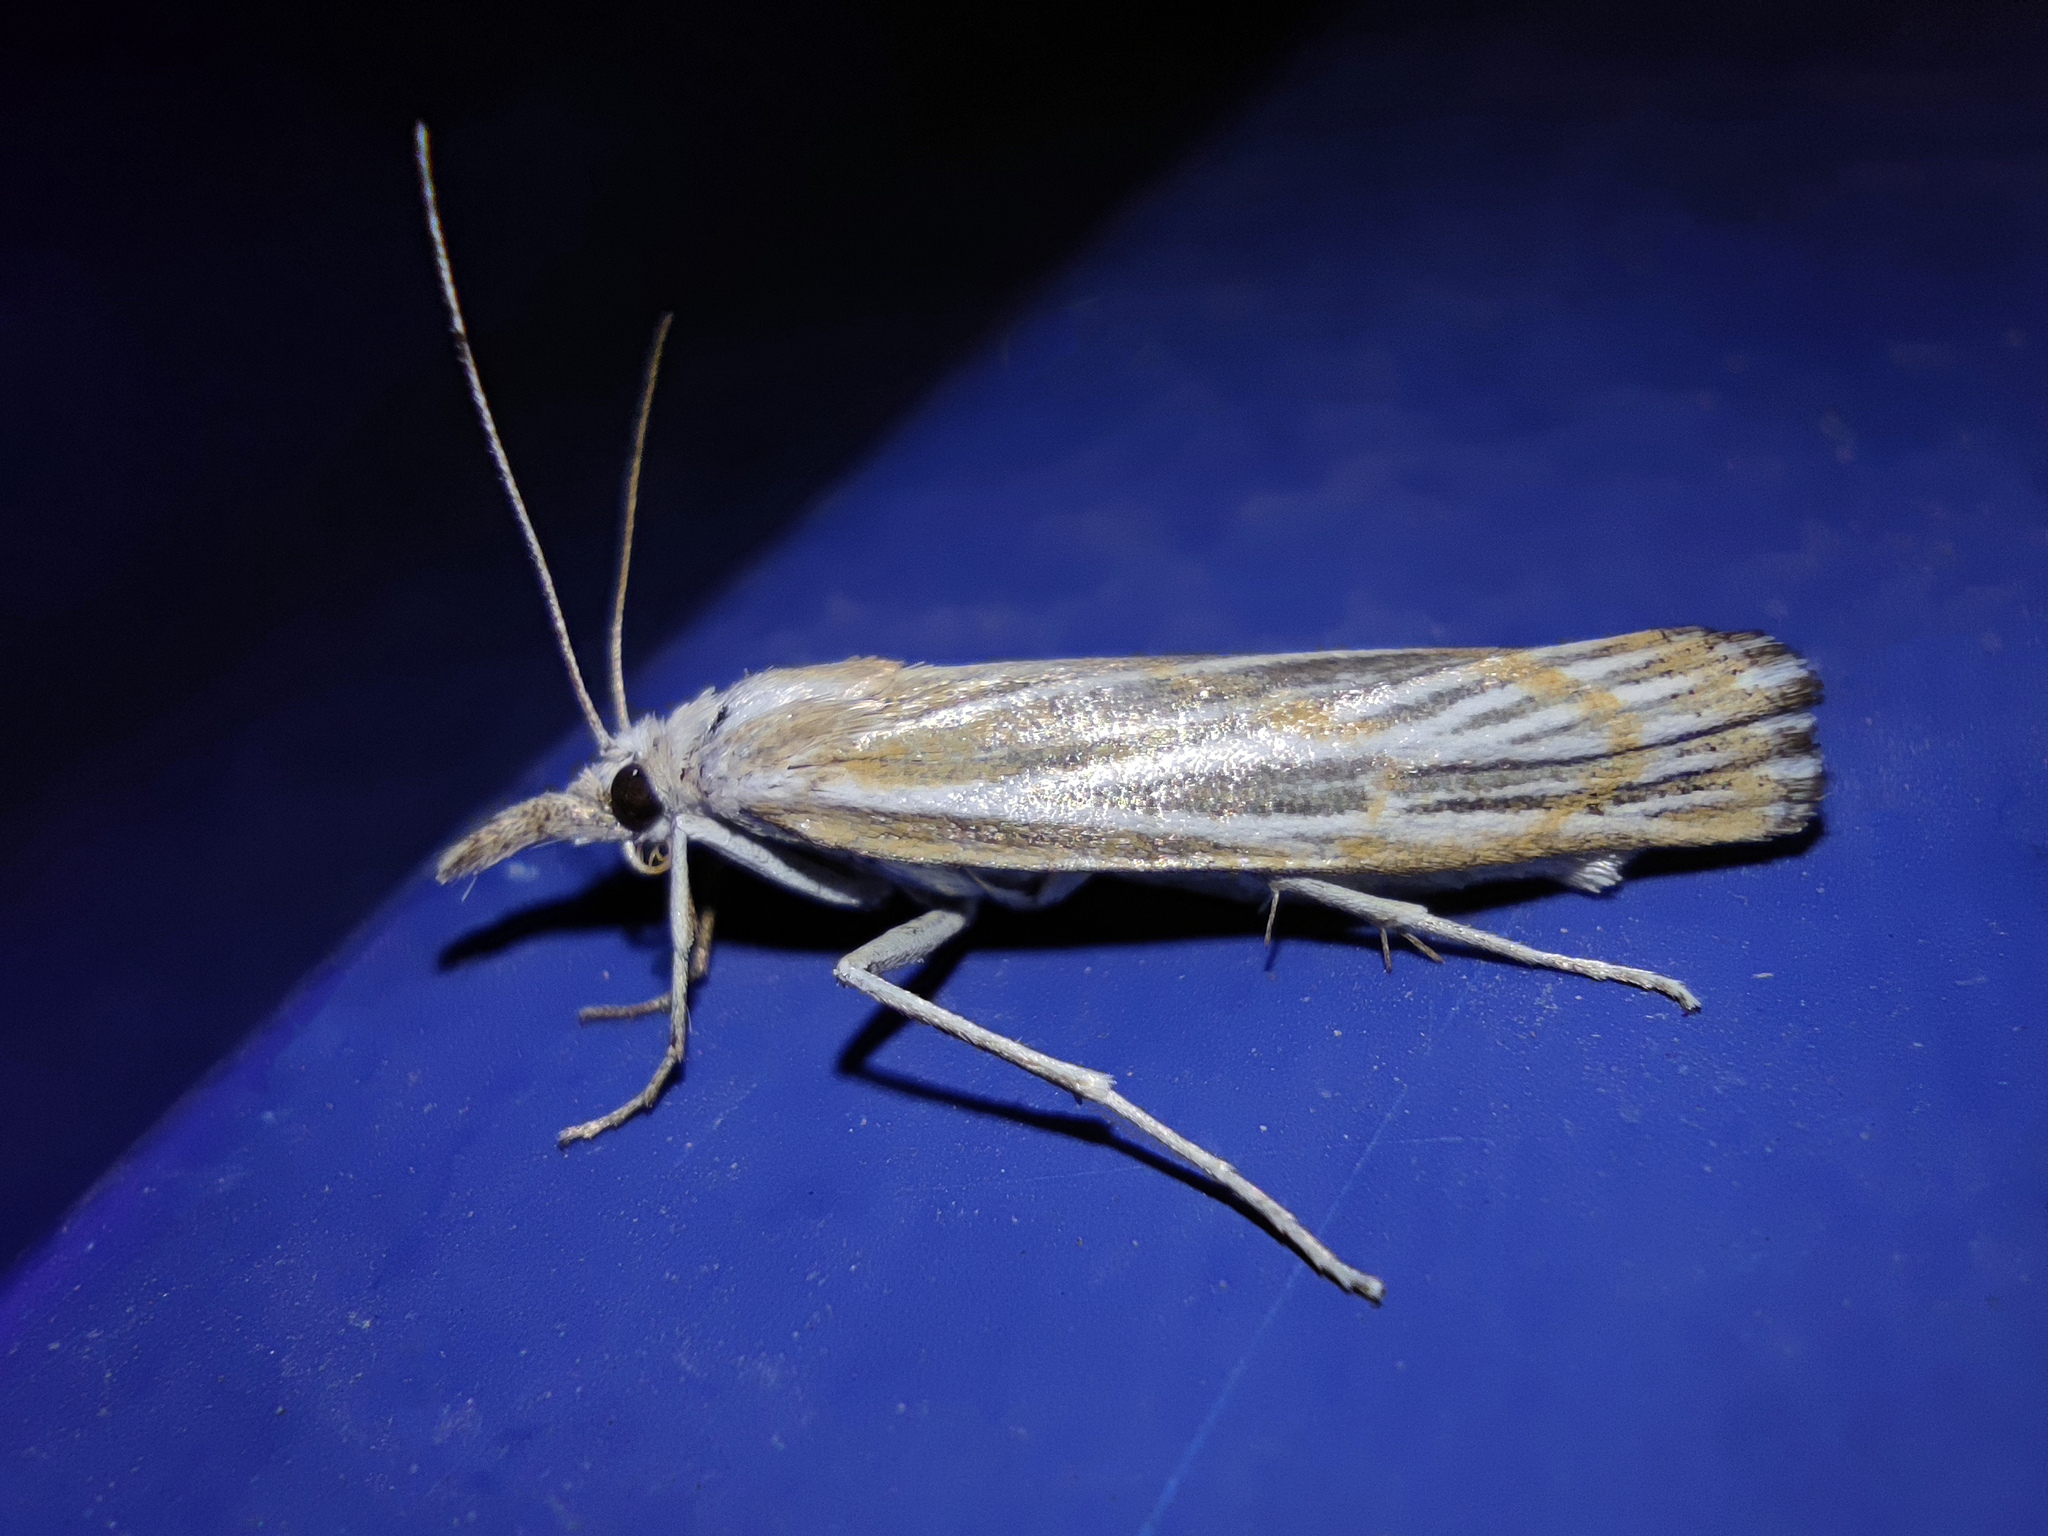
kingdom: Animalia
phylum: Arthropoda
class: Insecta
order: Lepidoptera
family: Crambidae
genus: Pediasia
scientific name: Pediasia pudibundellus
